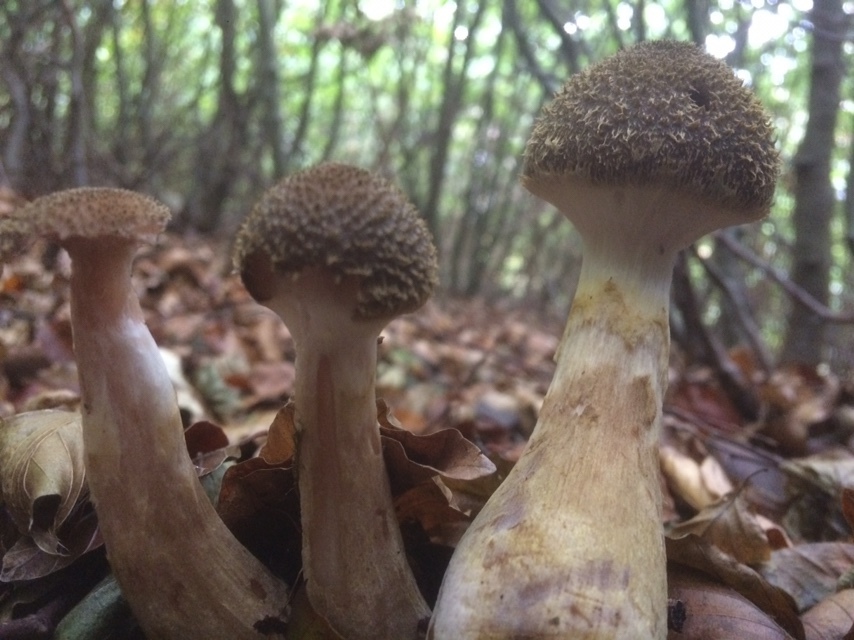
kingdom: Fungi
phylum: Basidiomycota
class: Agaricomycetes
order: Agaricales
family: Physalacriaceae
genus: Armillaria
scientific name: Armillaria gallica
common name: Bulbous honey fungus
